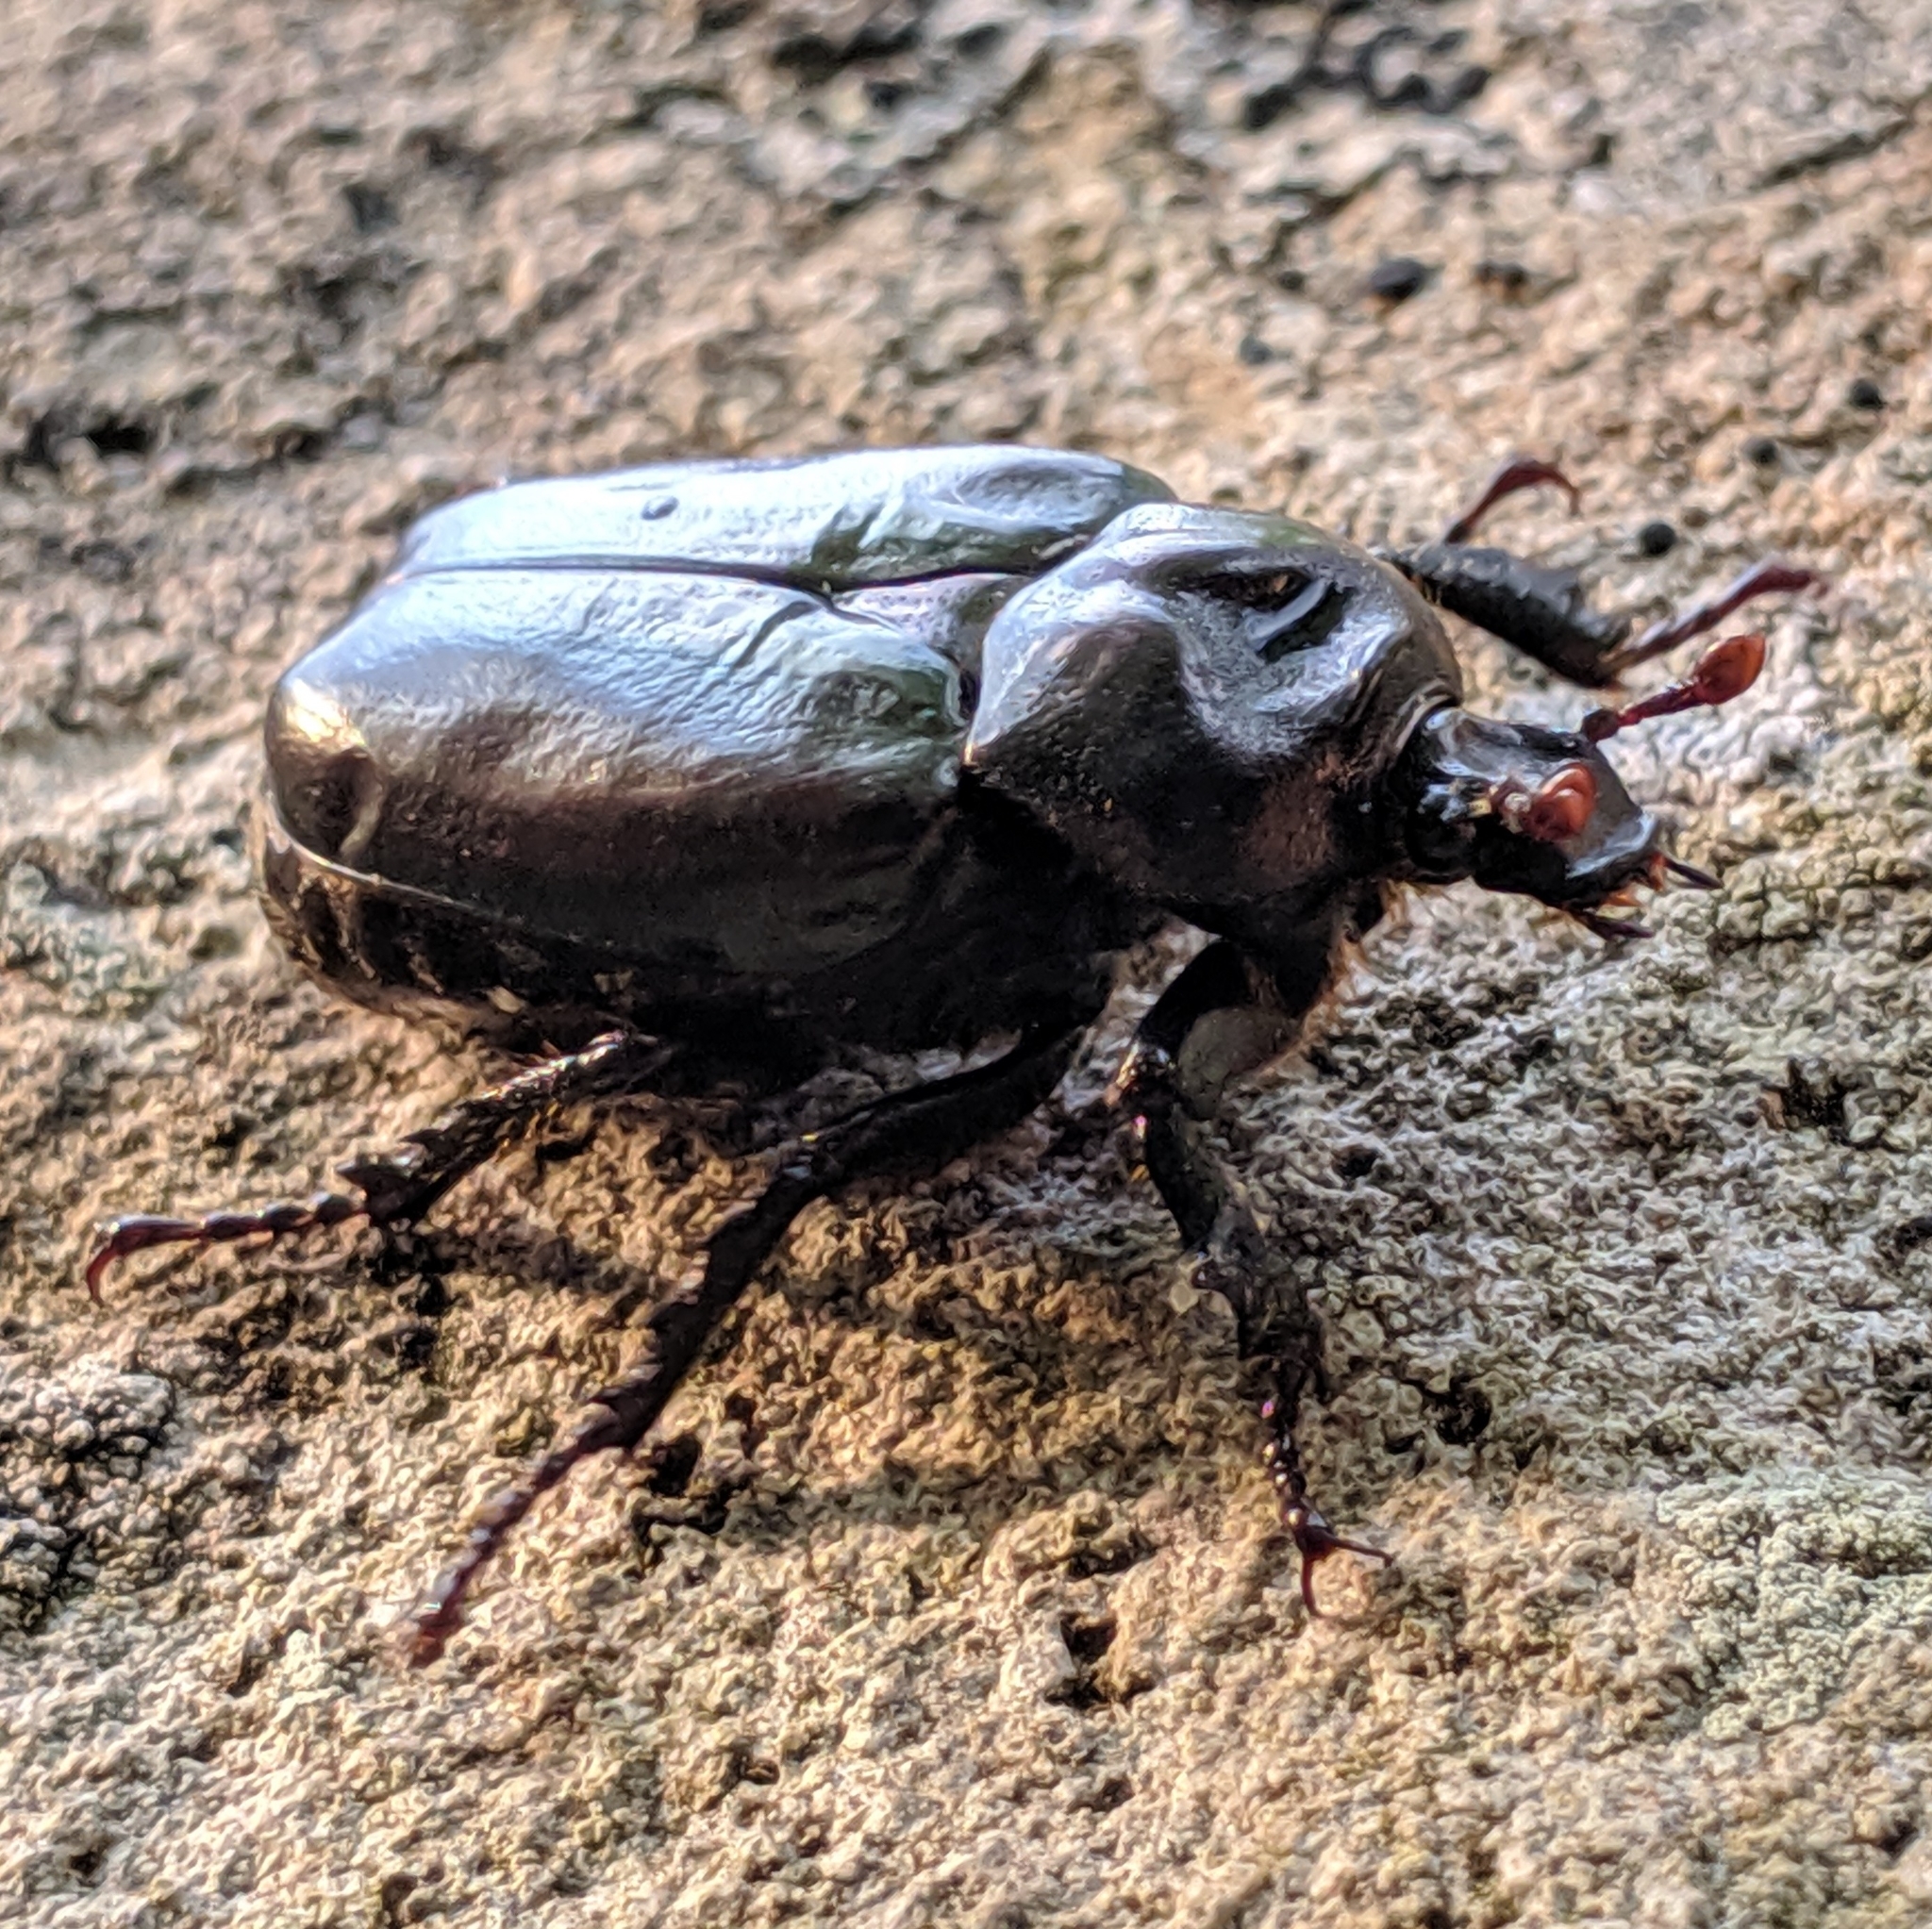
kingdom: Animalia
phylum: Arthropoda
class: Insecta
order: Coleoptera
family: Scarabaeidae
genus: Osmoderma
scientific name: Osmoderma eremicola
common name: Hermit flower beetle
